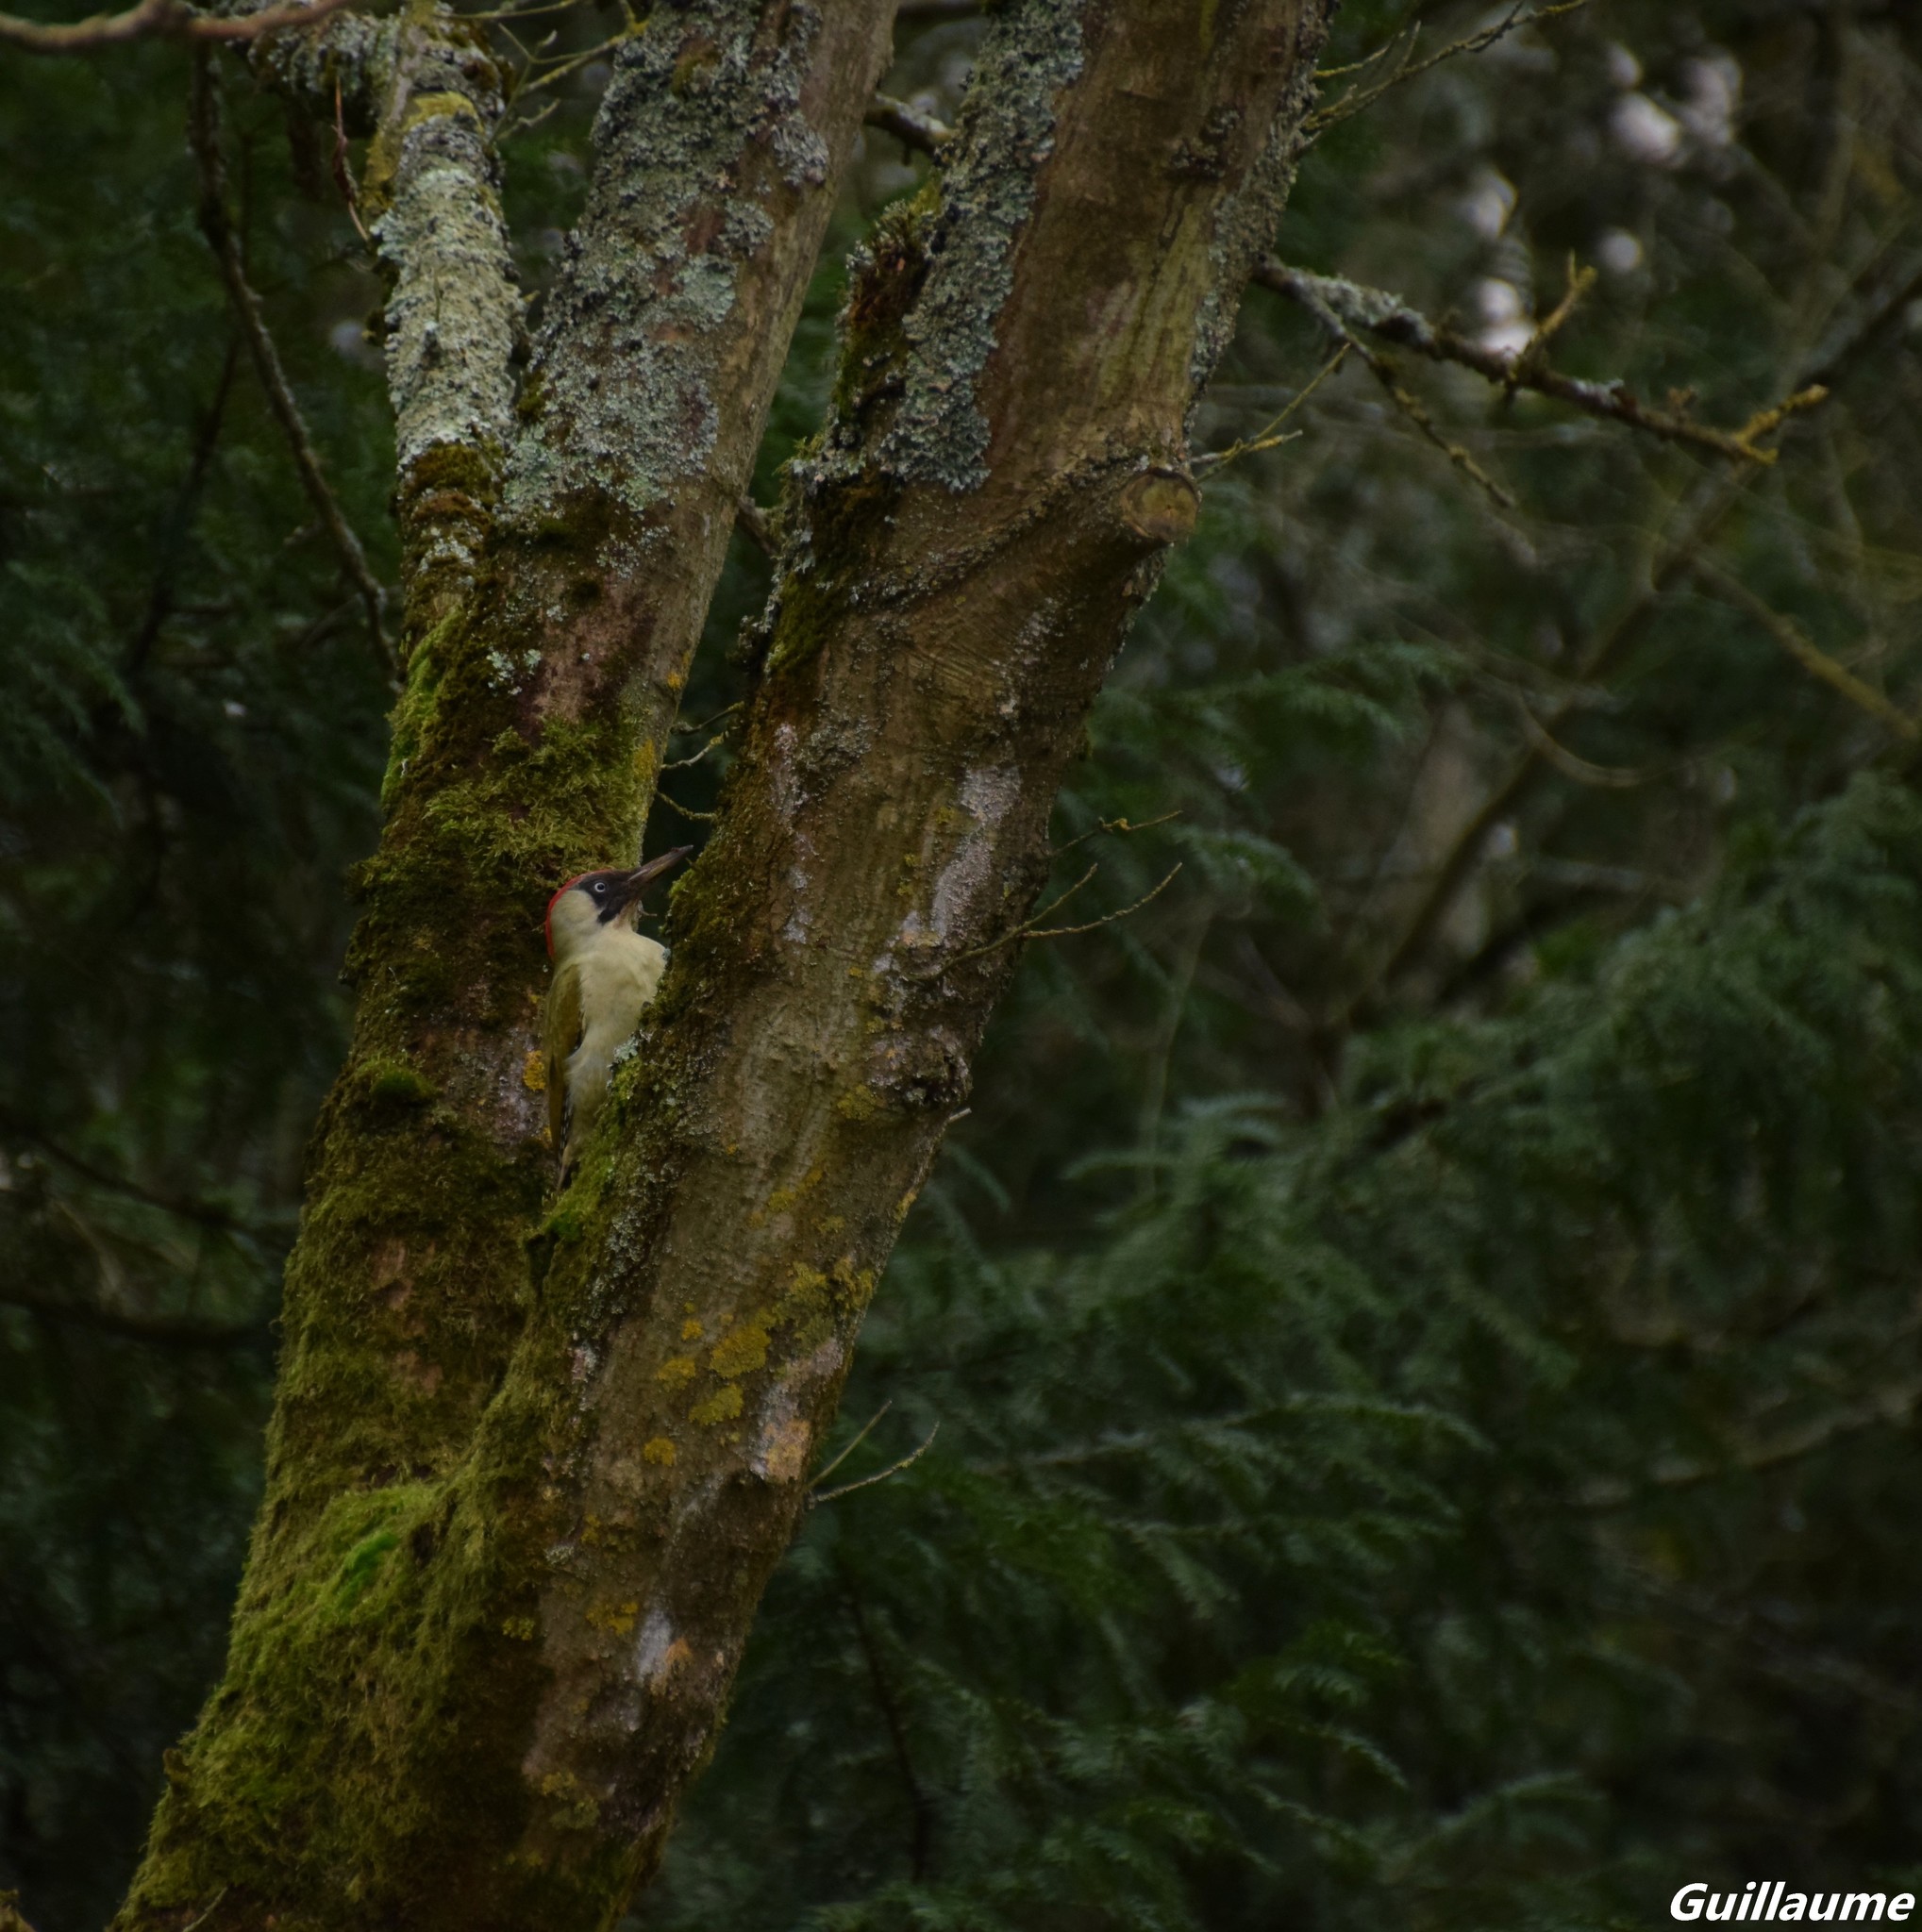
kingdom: Animalia
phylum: Chordata
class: Aves
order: Piciformes
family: Picidae
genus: Picus
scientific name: Picus viridis
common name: European green woodpecker
